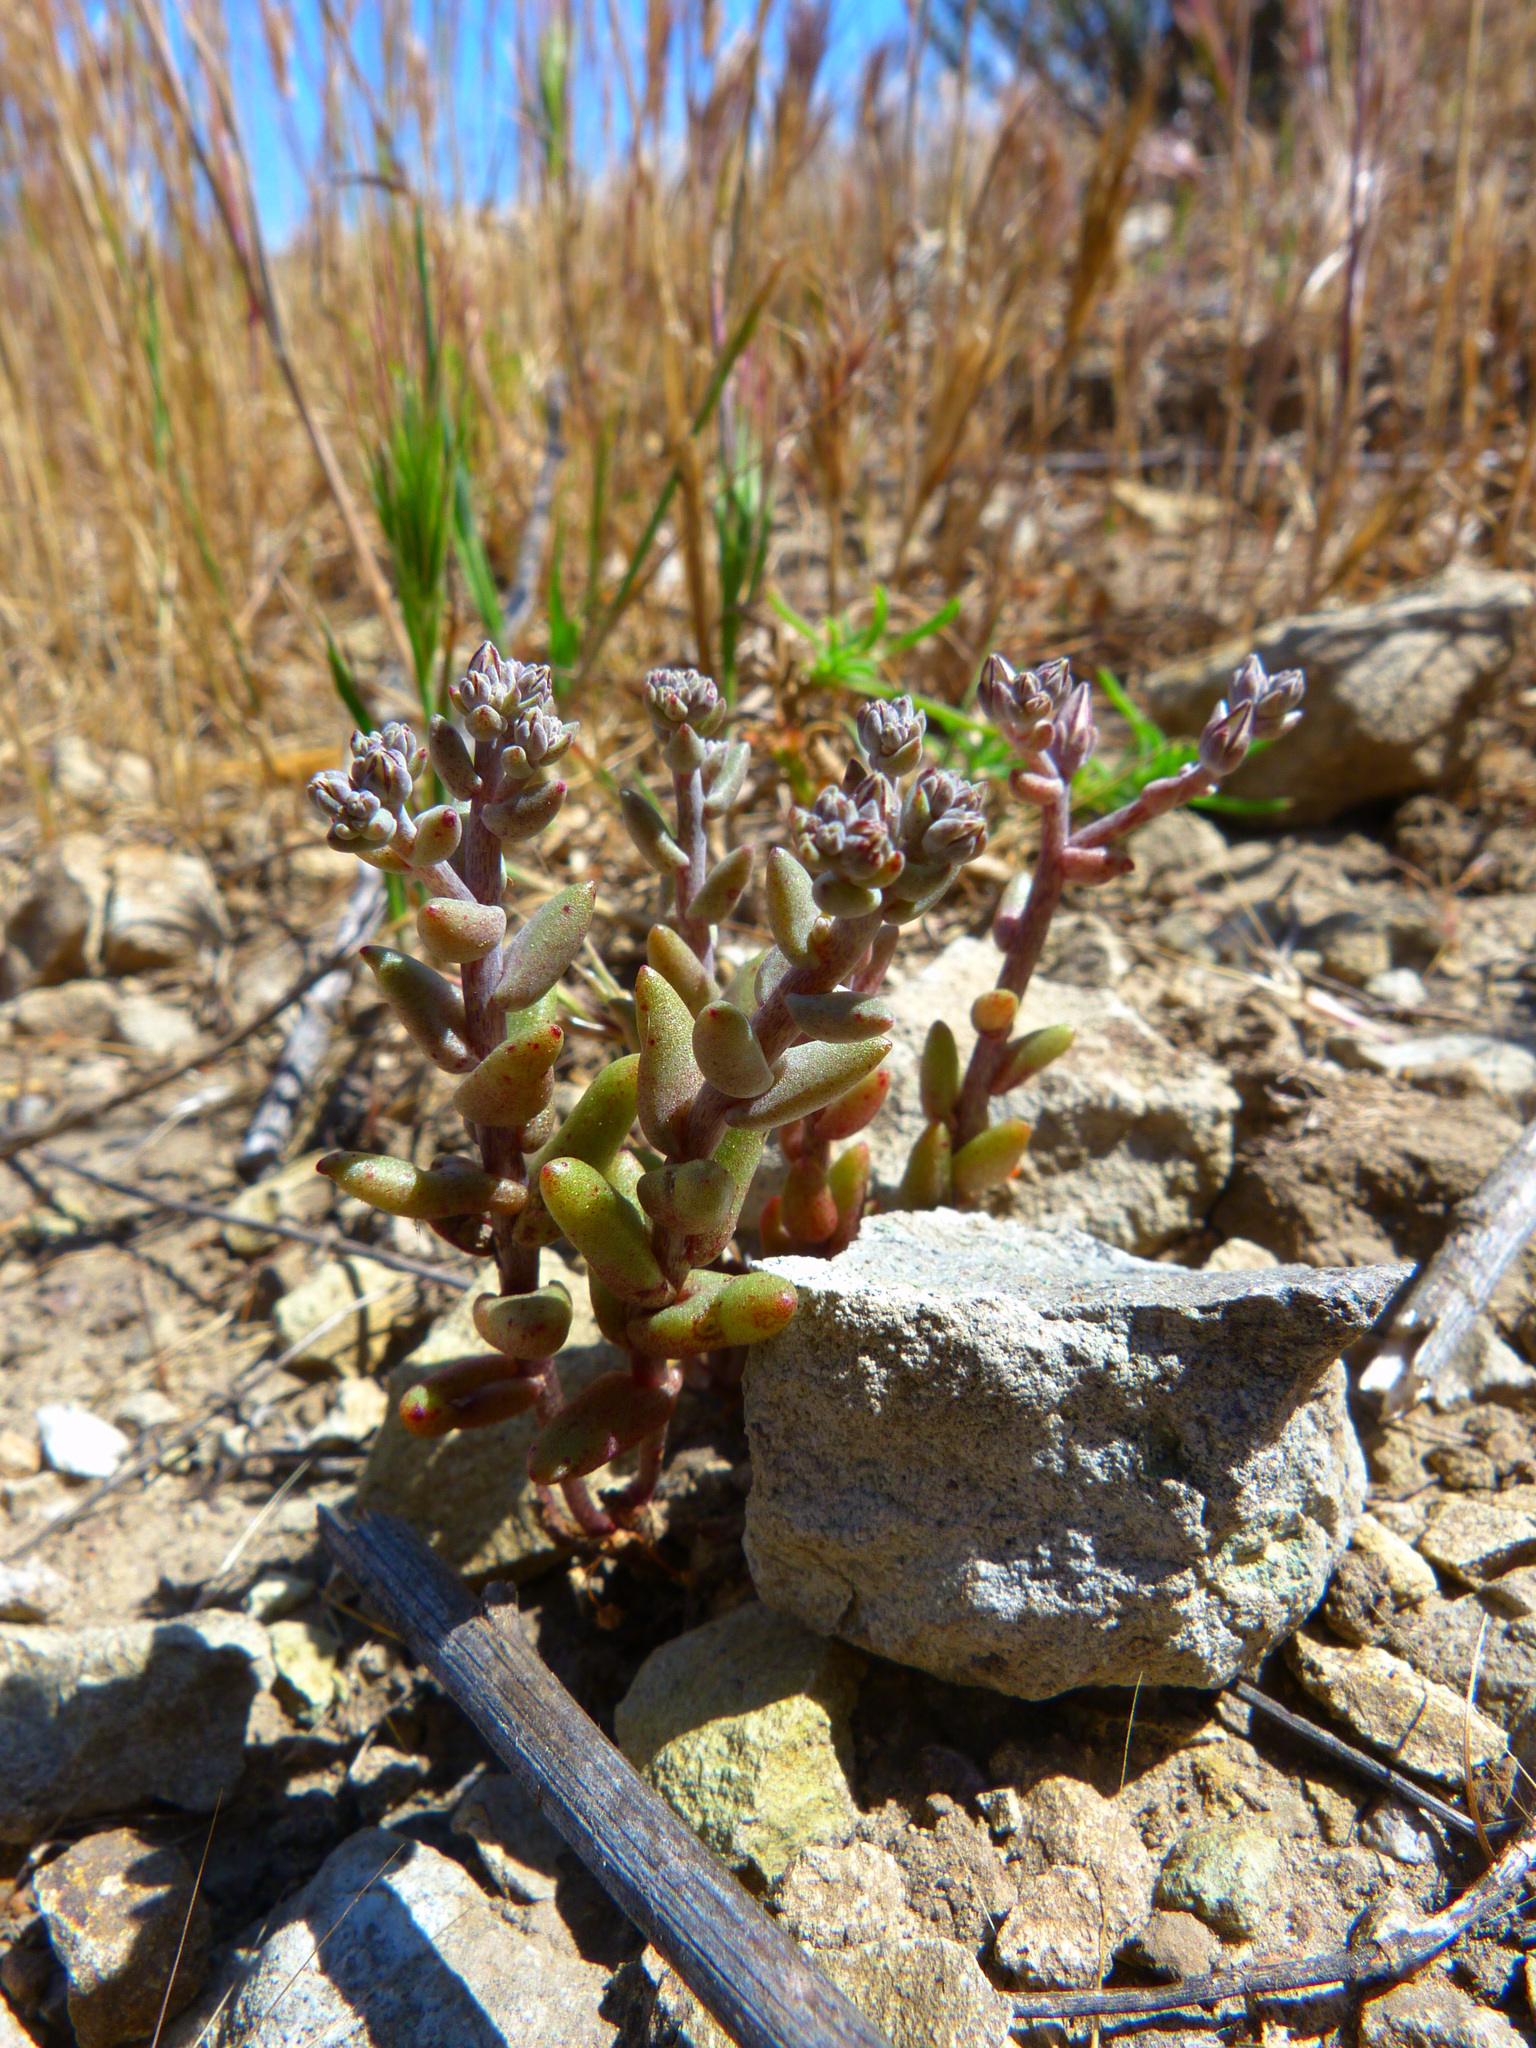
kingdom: Plantae
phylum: Tracheophyta
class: Magnoliopsida
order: Saxifragales
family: Crassulaceae
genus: Dudleya
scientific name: Dudleya blochmaniae
